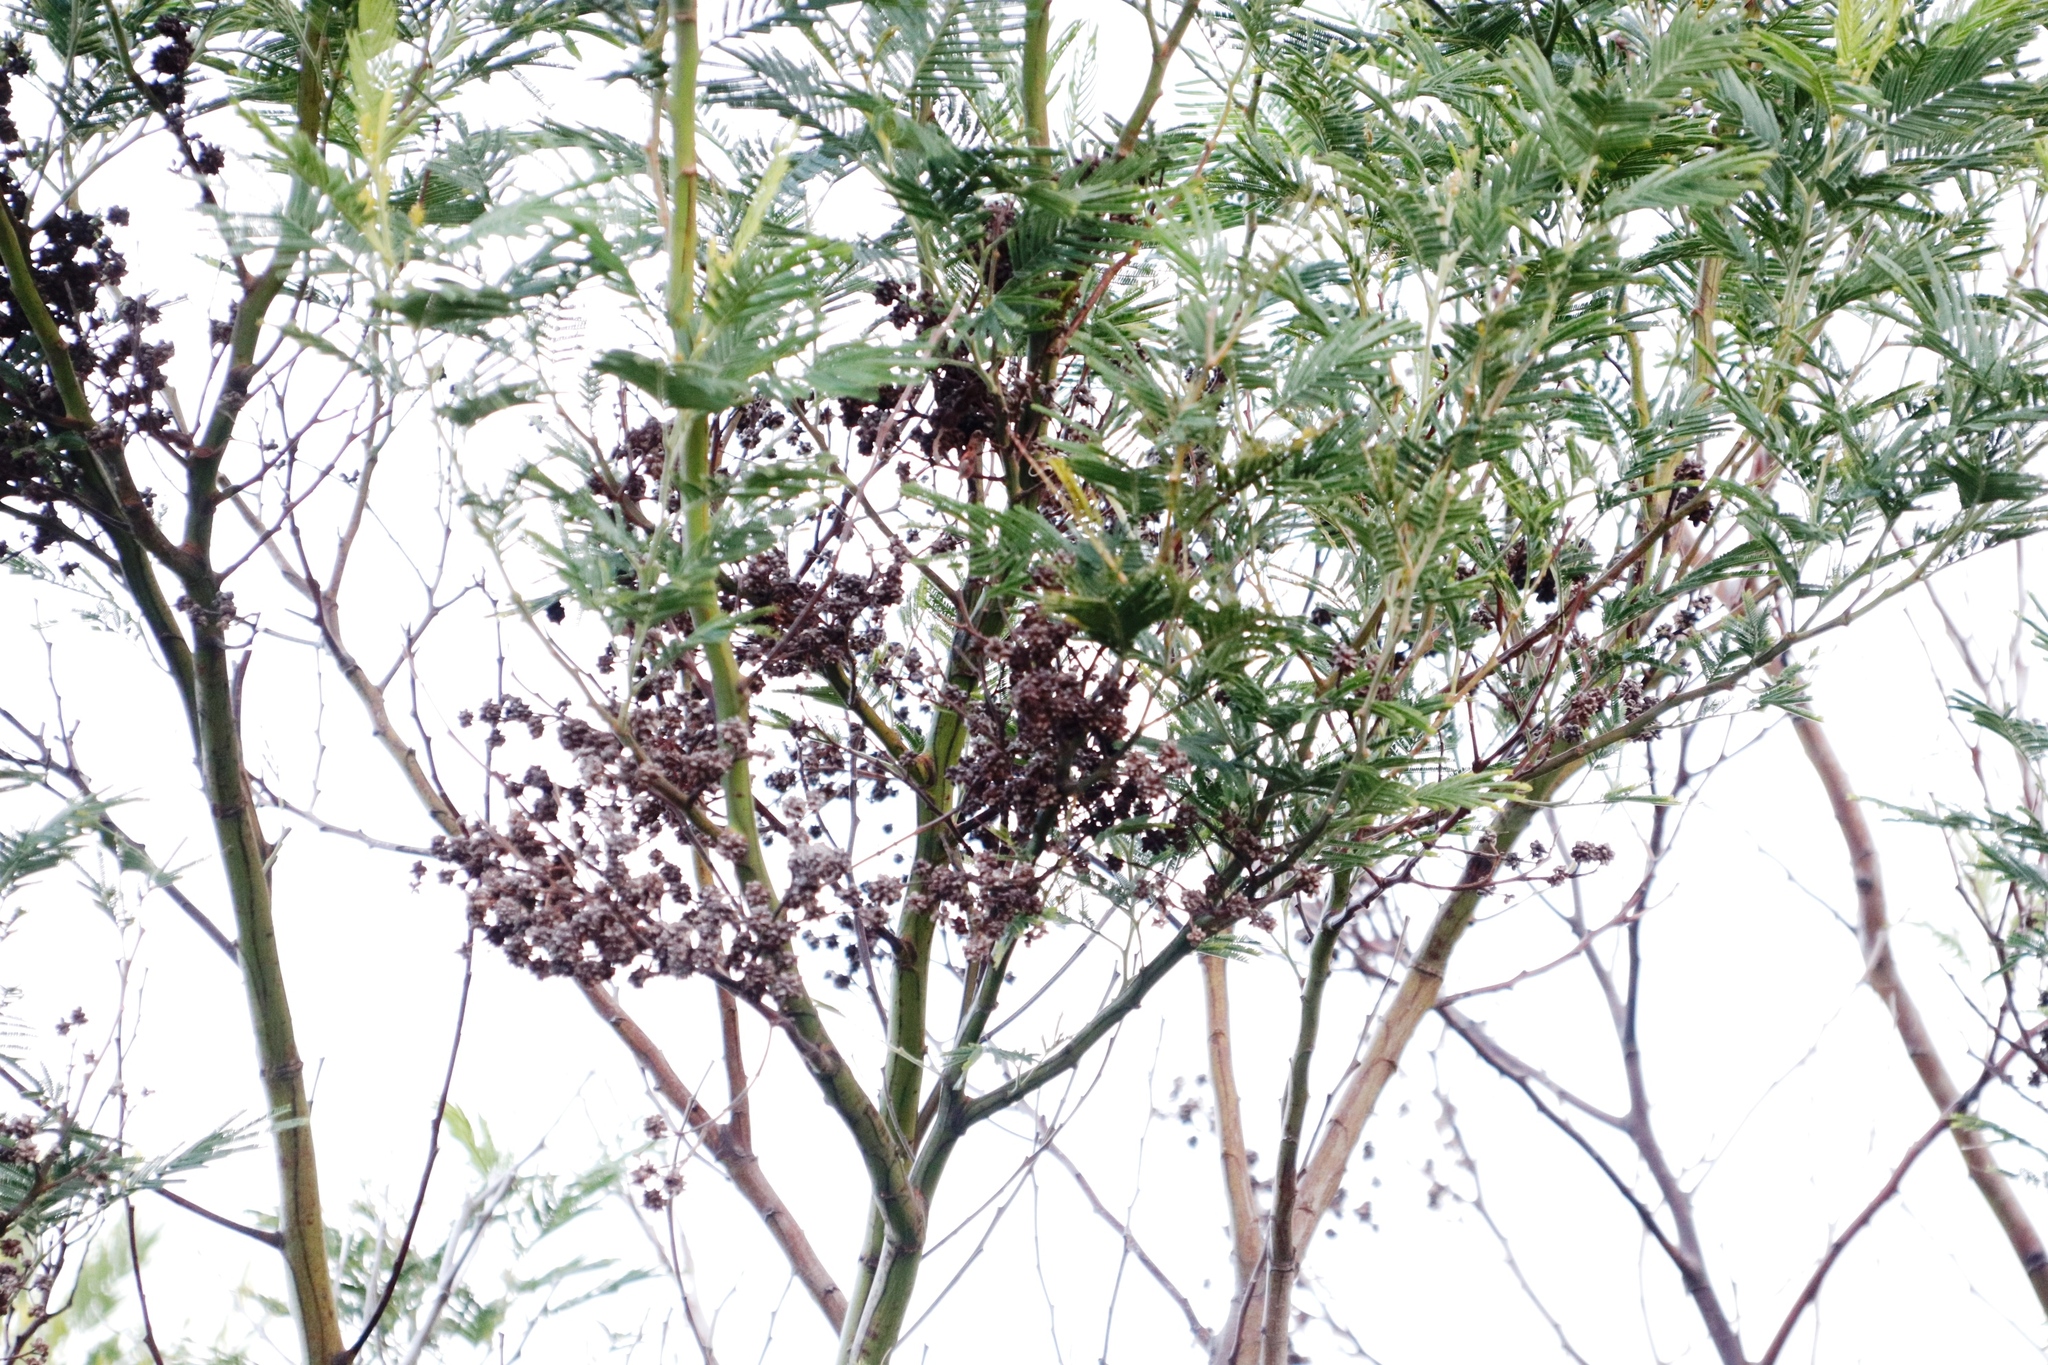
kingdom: Plantae
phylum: Tracheophyta
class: Magnoliopsida
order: Fabales
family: Fabaceae
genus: Acacia
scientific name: Acacia mearnsii
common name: Black wattle
